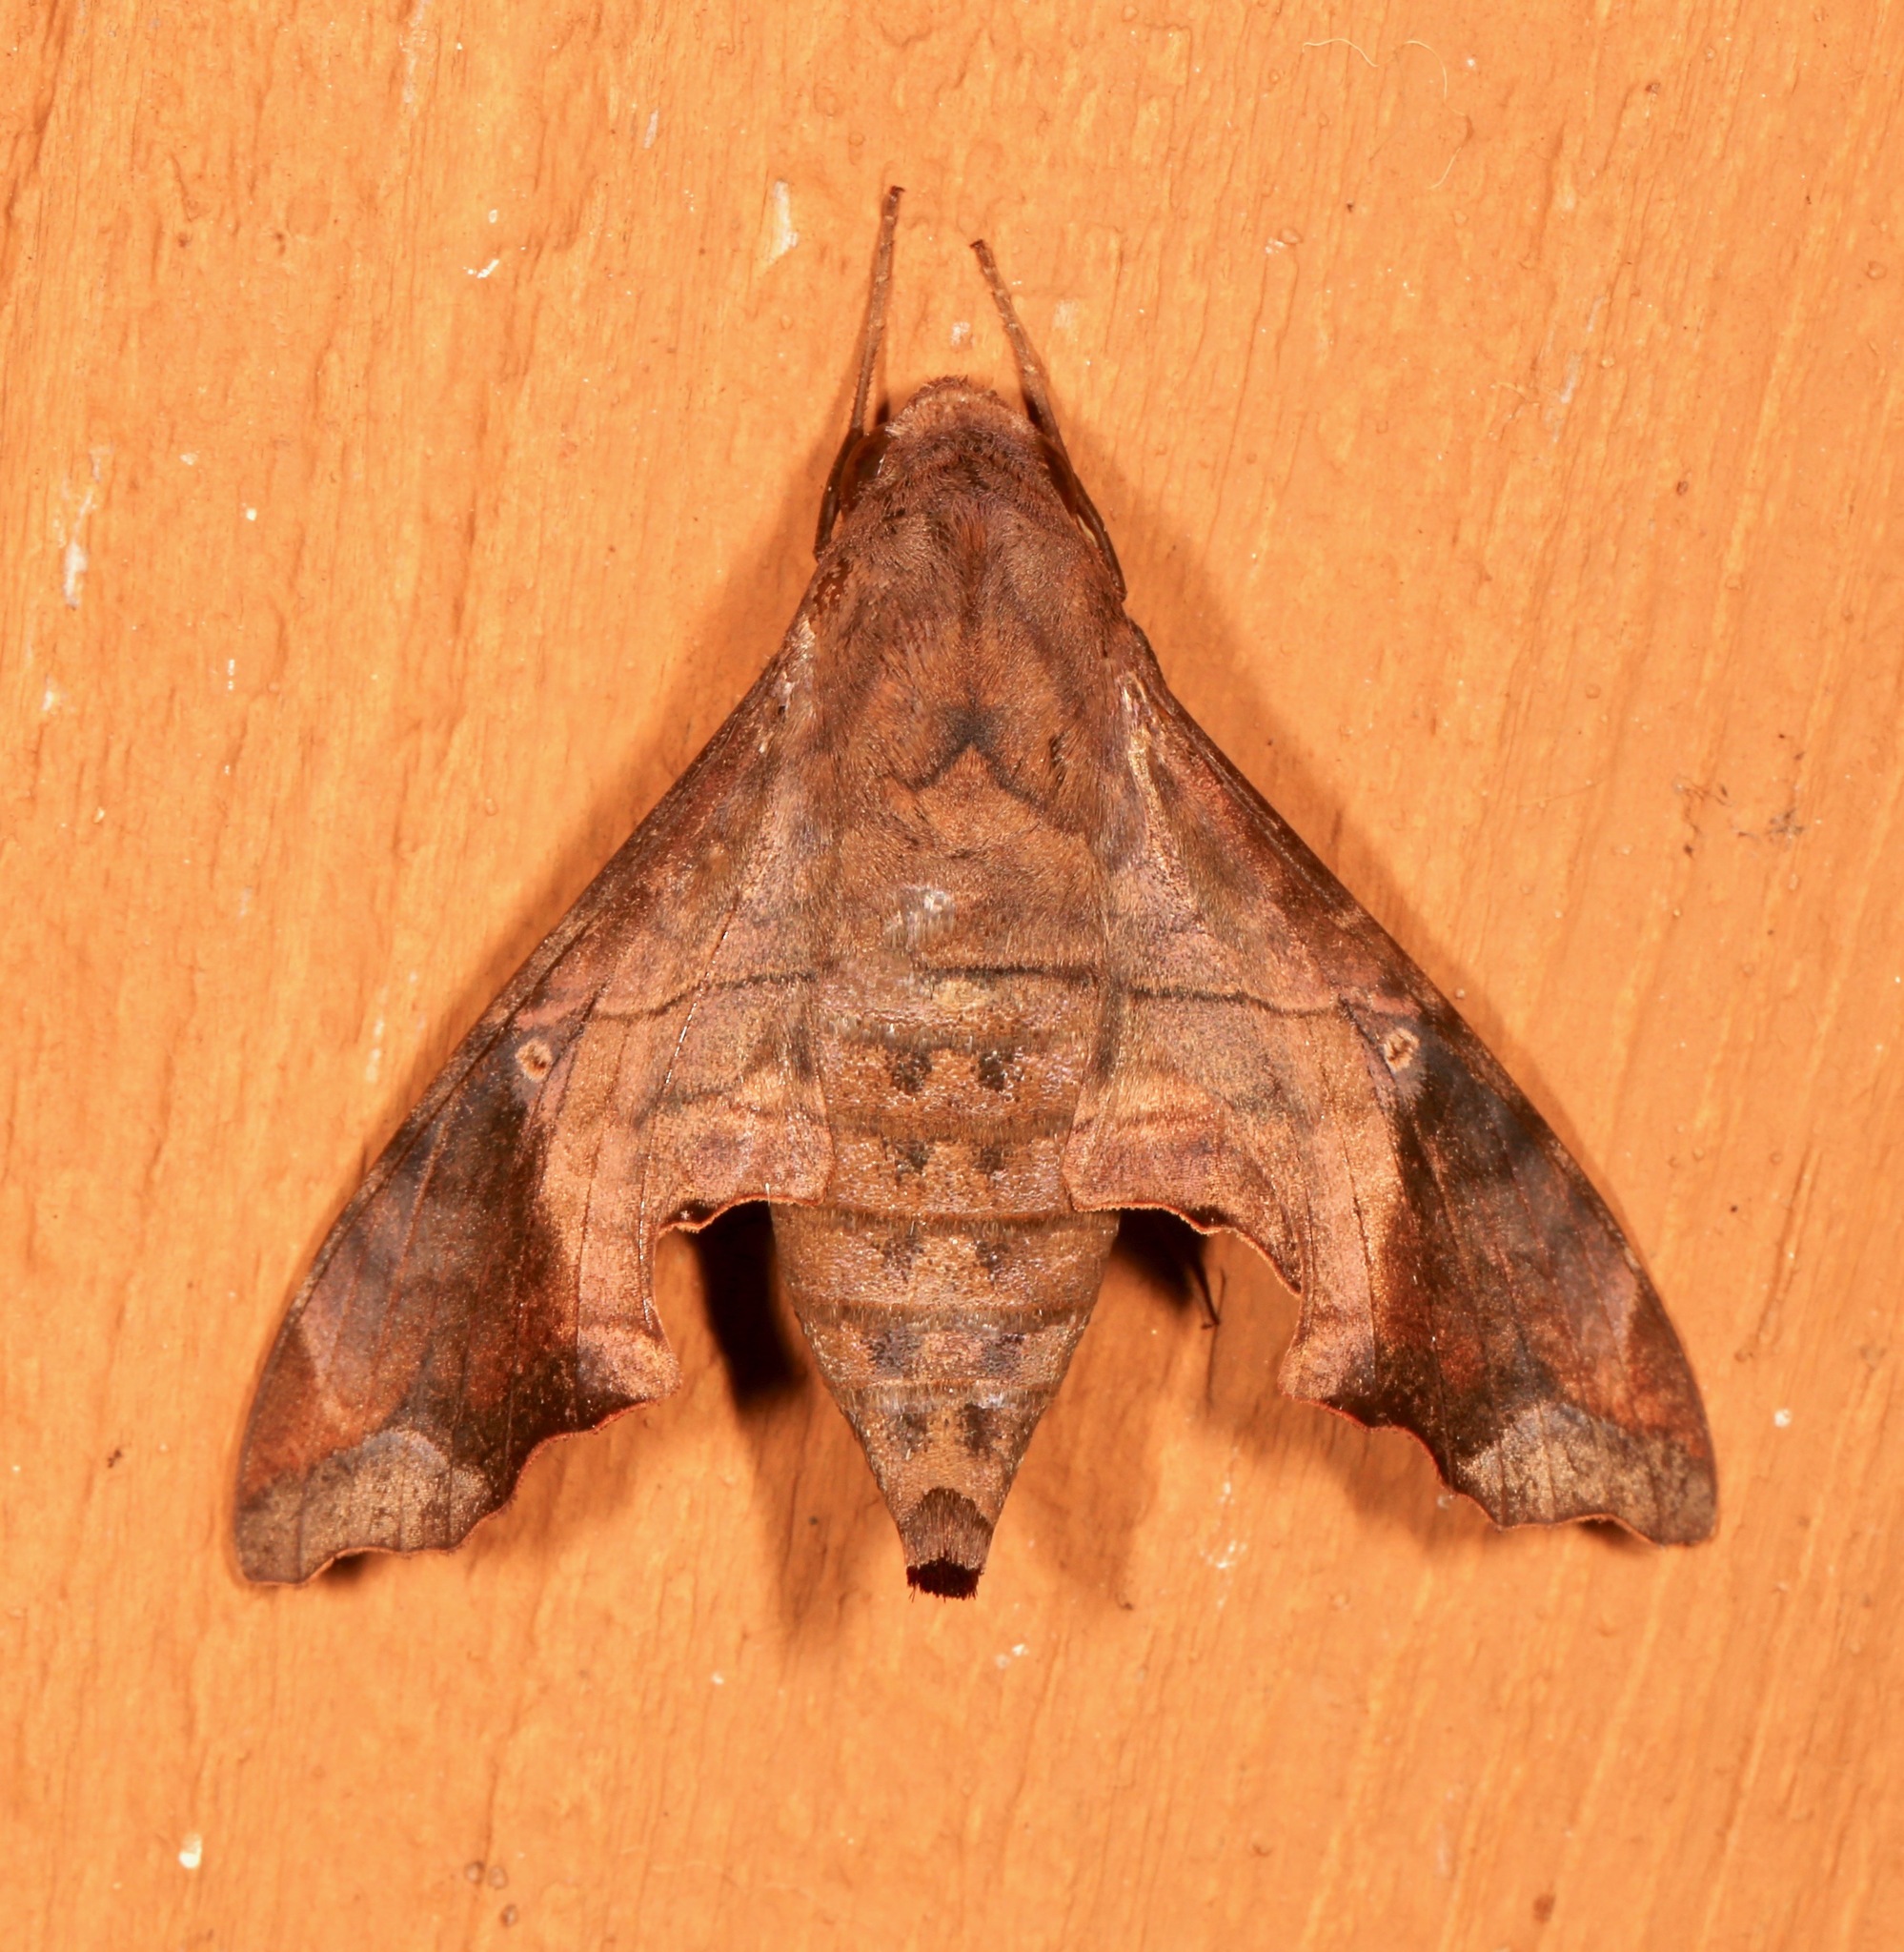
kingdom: Animalia
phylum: Arthropoda
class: Insecta
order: Lepidoptera
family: Sphingidae
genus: Enyo
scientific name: Enyo lugubris
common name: Mournful sphinx
